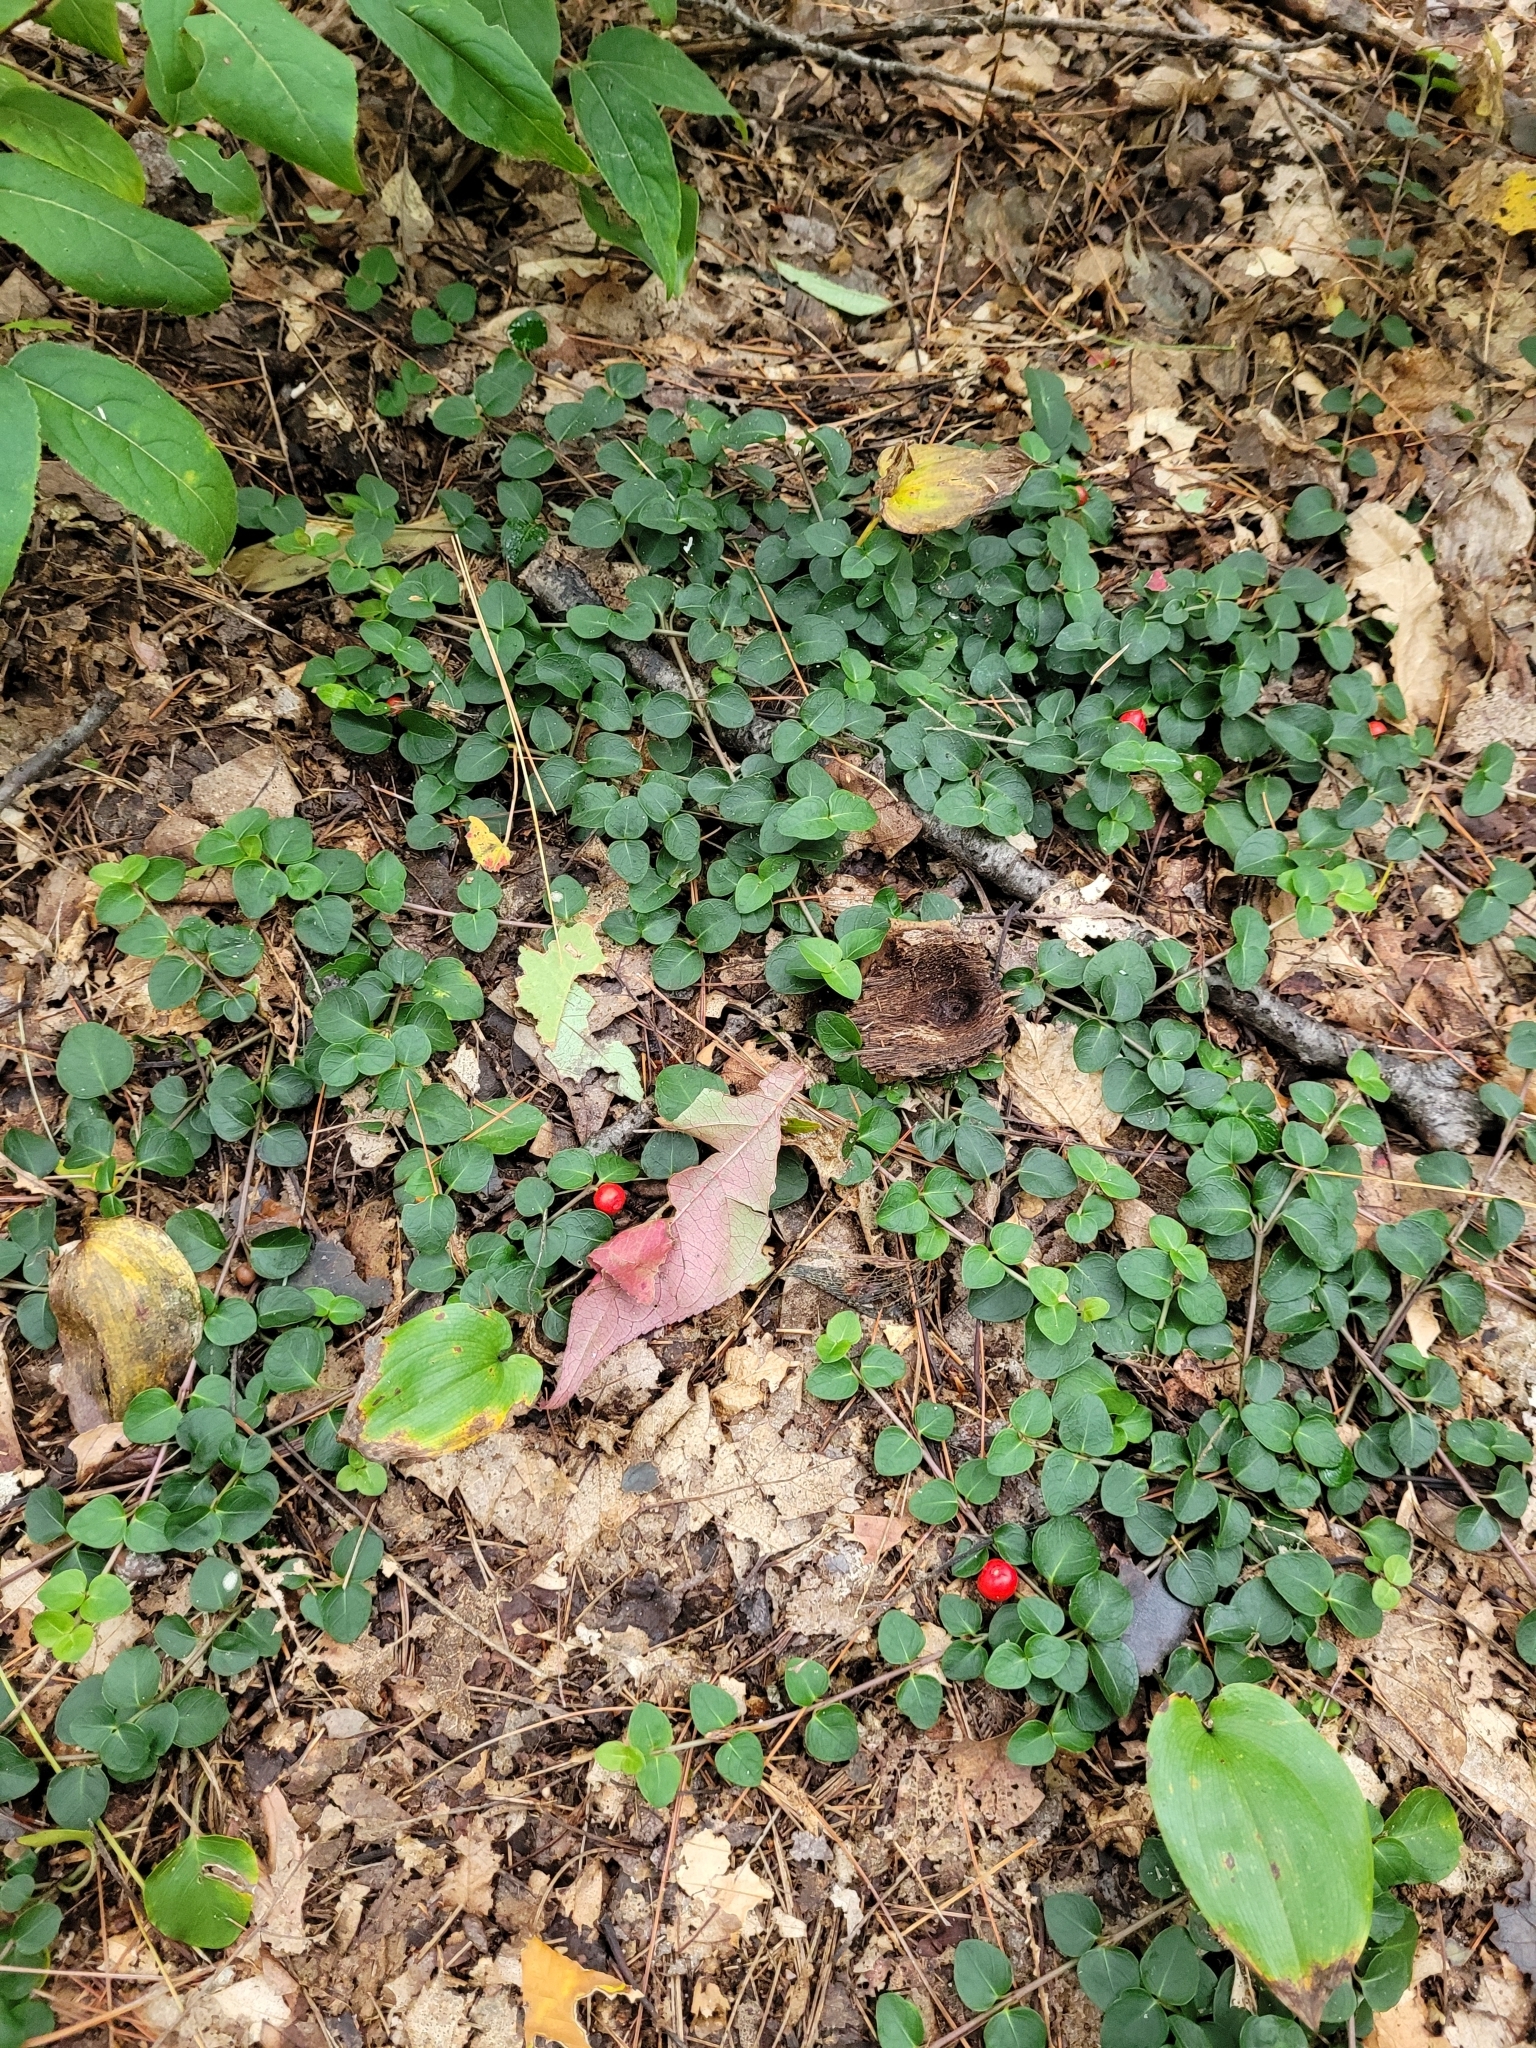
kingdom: Plantae
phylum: Tracheophyta
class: Magnoliopsida
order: Gentianales
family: Rubiaceae
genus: Mitchella
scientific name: Mitchella repens
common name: Partridge-berry
